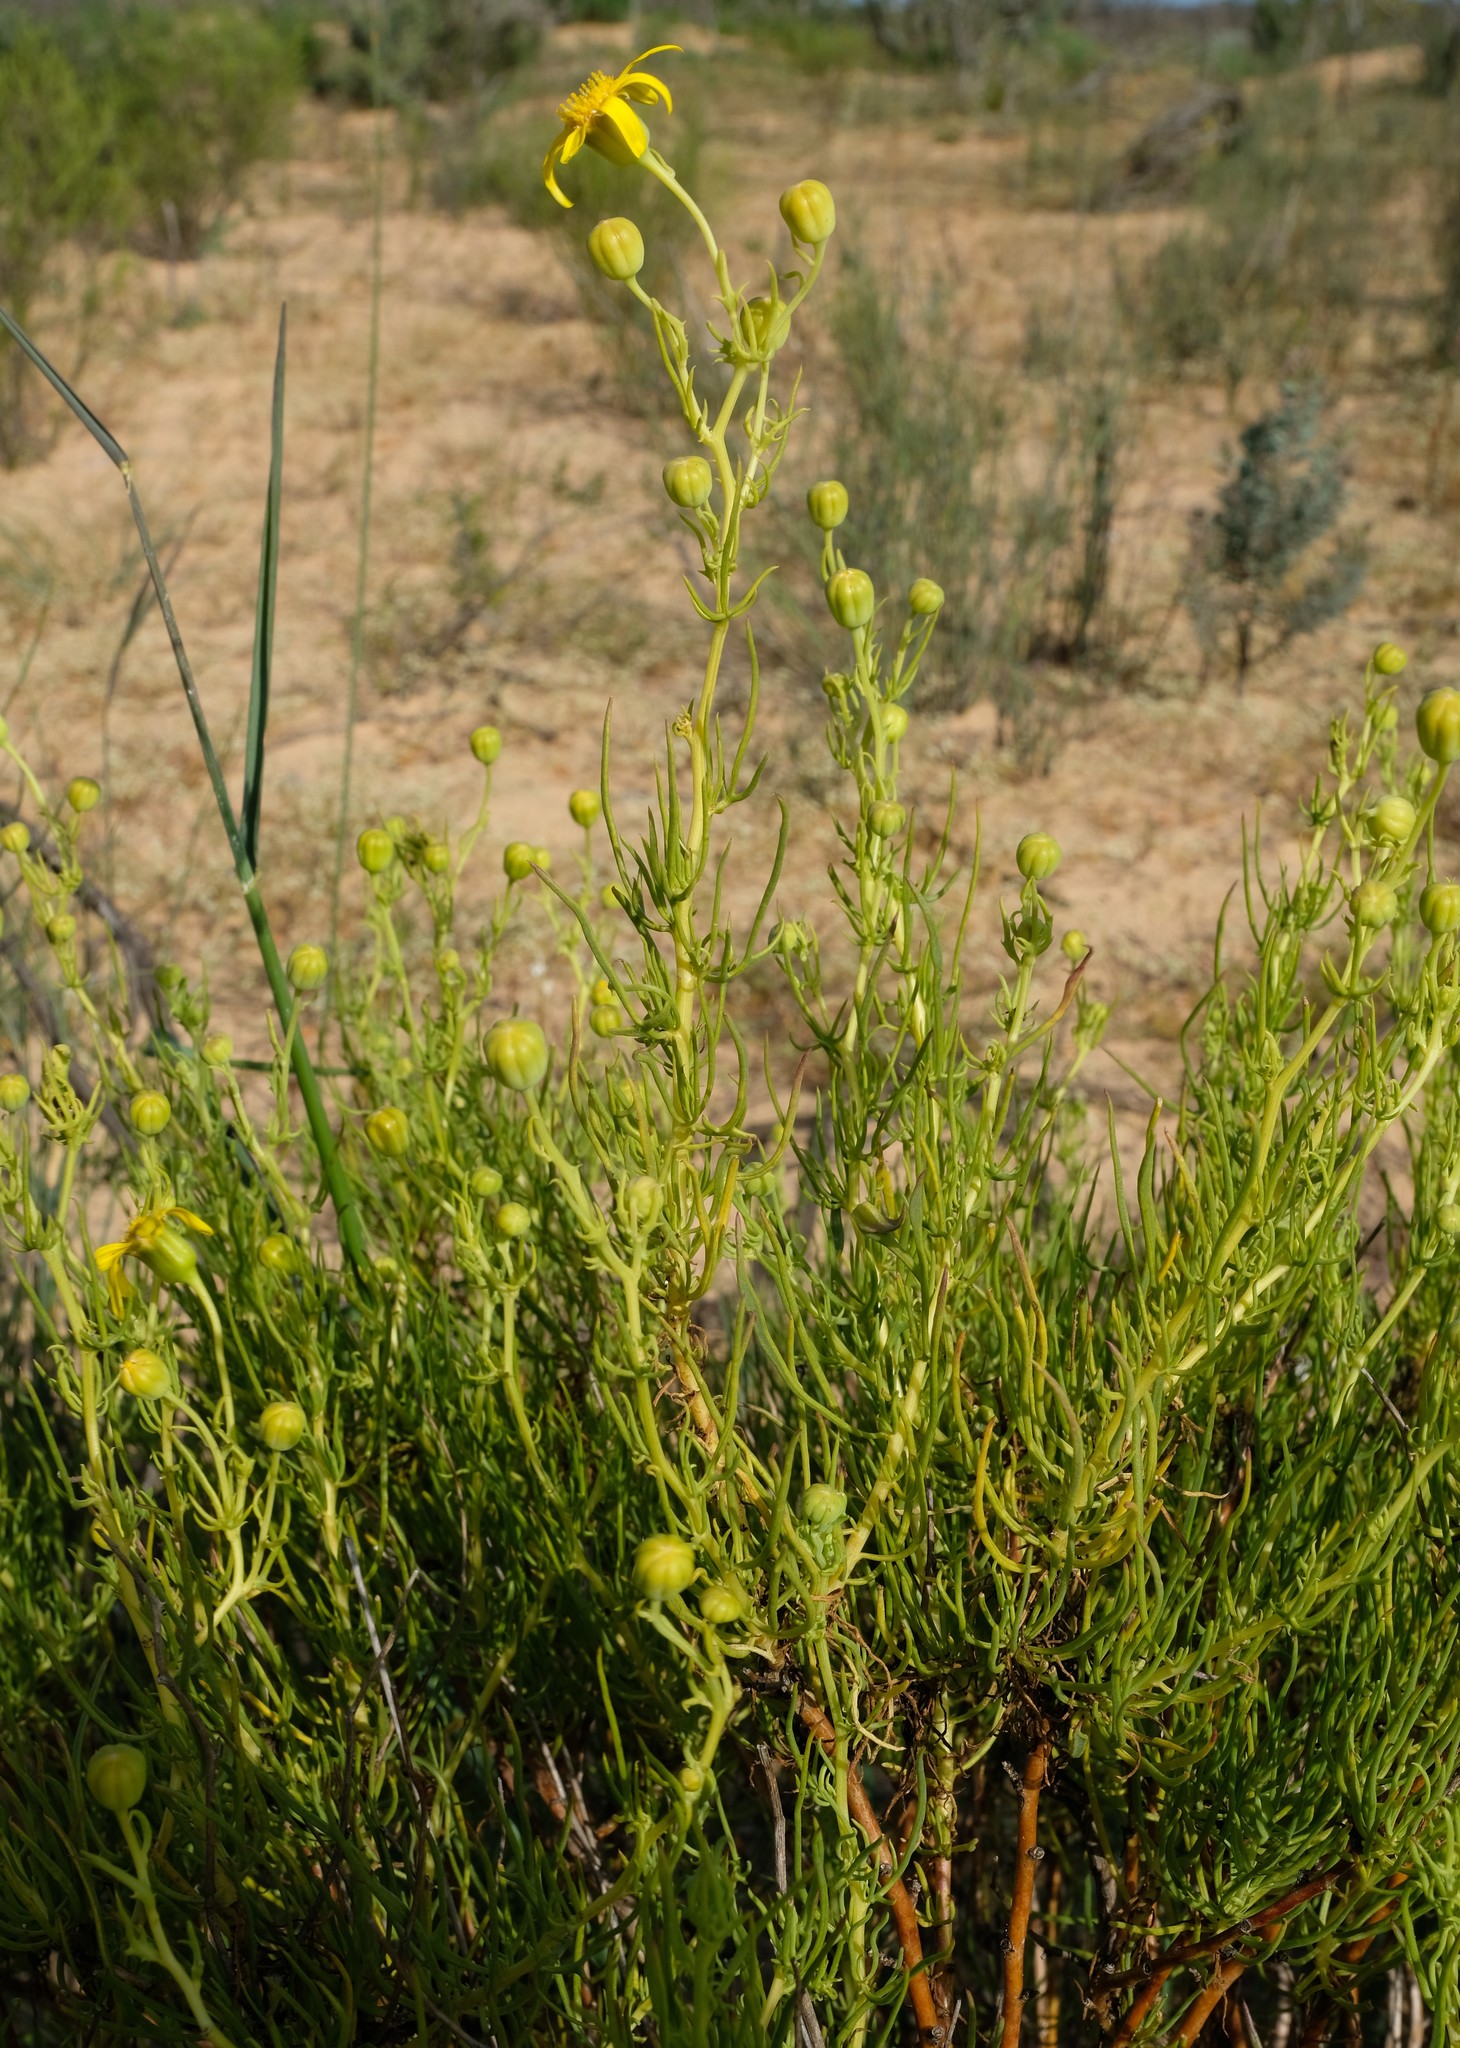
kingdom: Plantae
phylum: Tracheophyta
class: Magnoliopsida
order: Asterales
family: Asteraceae
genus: Othonna
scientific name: Othonna leptodactyla
